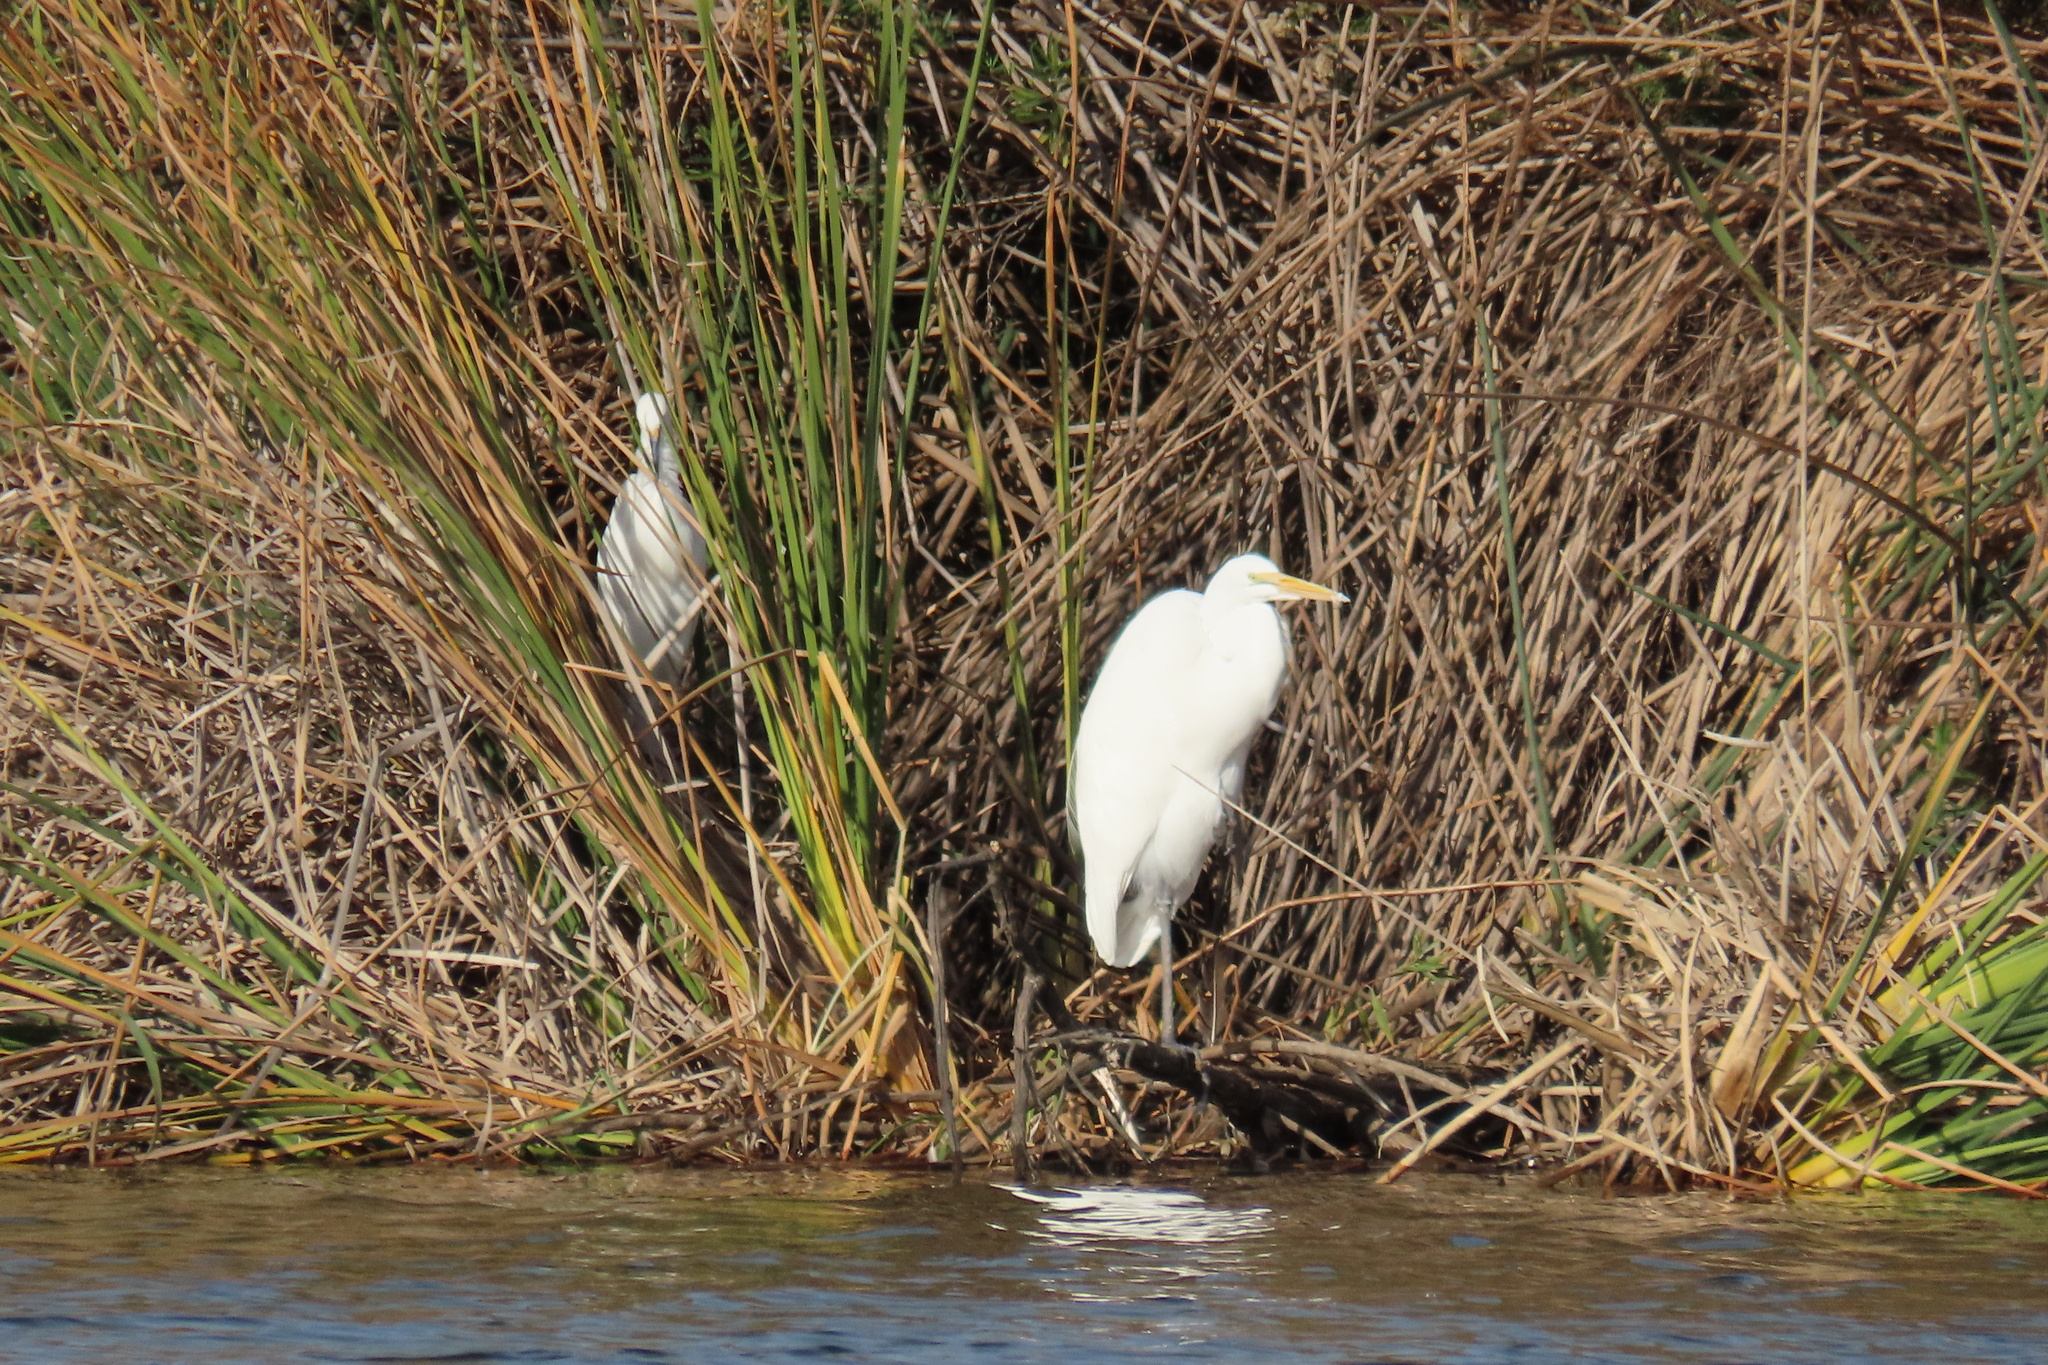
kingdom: Animalia
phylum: Chordata
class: Aves
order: Pelecaniformes
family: Ardeidae
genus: Egretta
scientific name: Egretta thula
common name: Snowy egret
